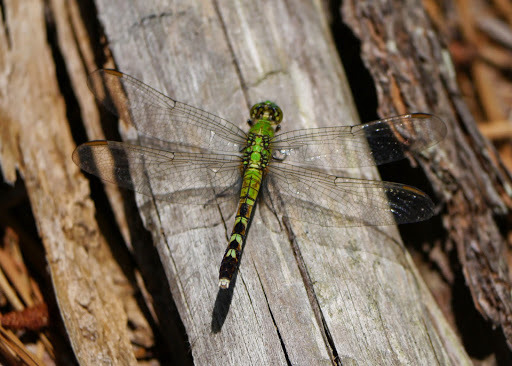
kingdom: Animalia
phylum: Arthropoda
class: Insecta
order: Odonata
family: Libellulidae
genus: Erythemis
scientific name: Erythemis simplicicollis
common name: Eastern pondhawk
